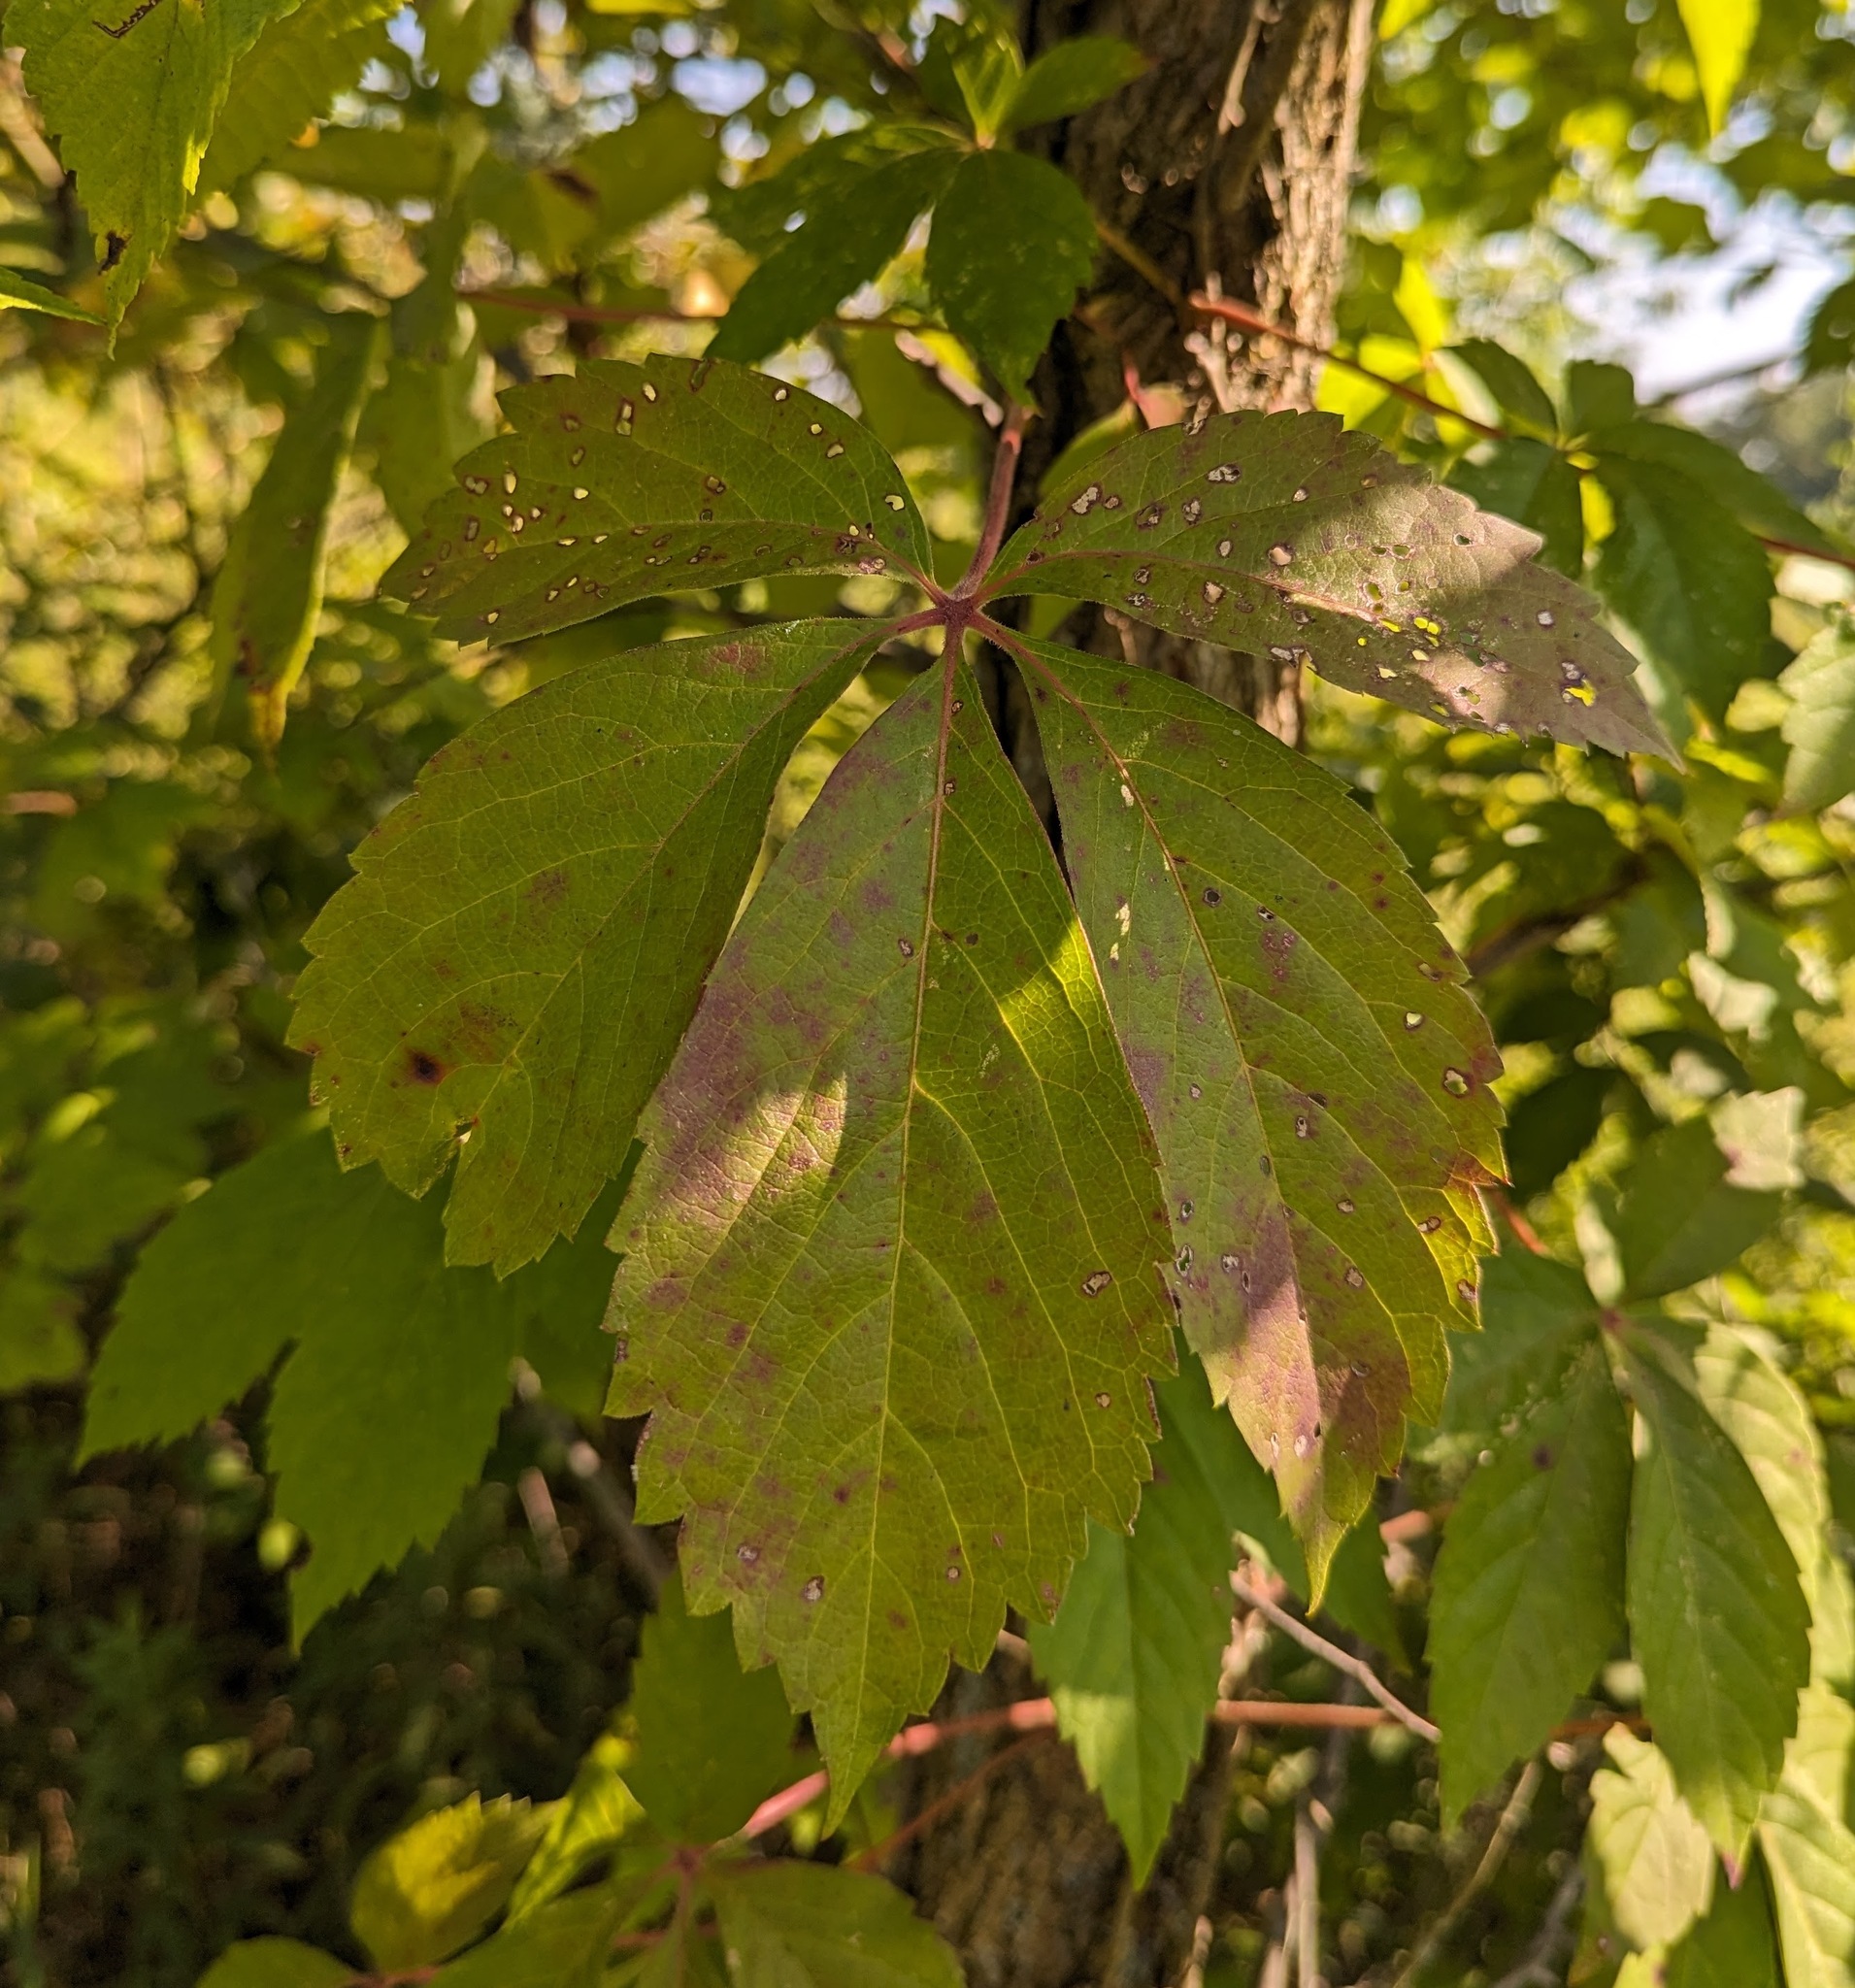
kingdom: Plantae
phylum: Tracheophyta
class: Magnoliopsida
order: Vitales
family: Vitaceae
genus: Parthenocissus
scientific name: Parthenocissus quinquefolia
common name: Virginia-creeper
